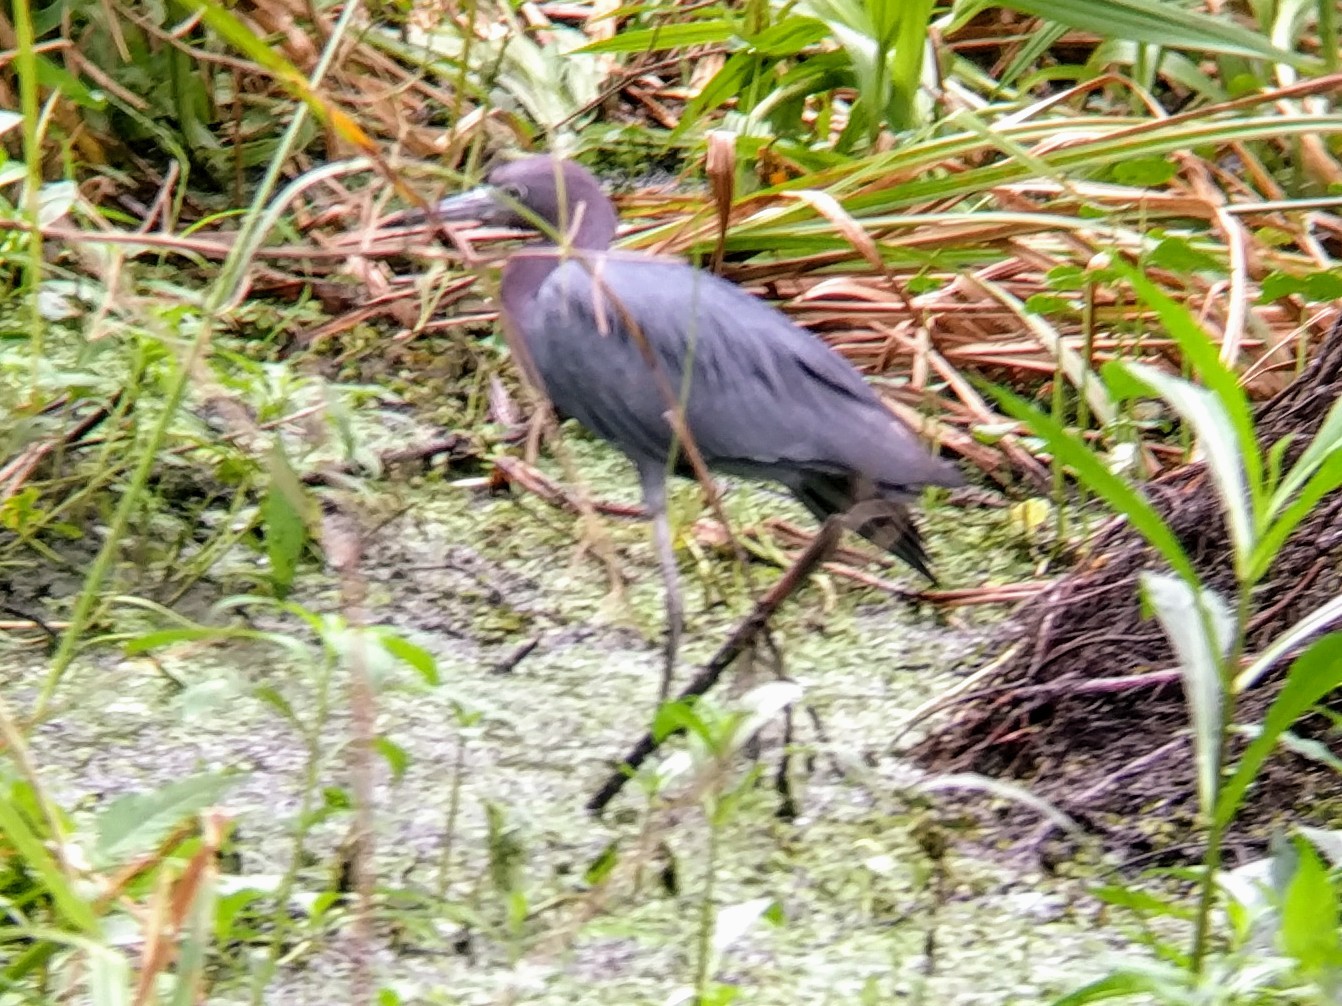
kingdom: Animalia
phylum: Chordata
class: Aves
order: Pelecaniformes
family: Ardeidae
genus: Egretta
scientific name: Egretta caerulea
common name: Little blue heron
